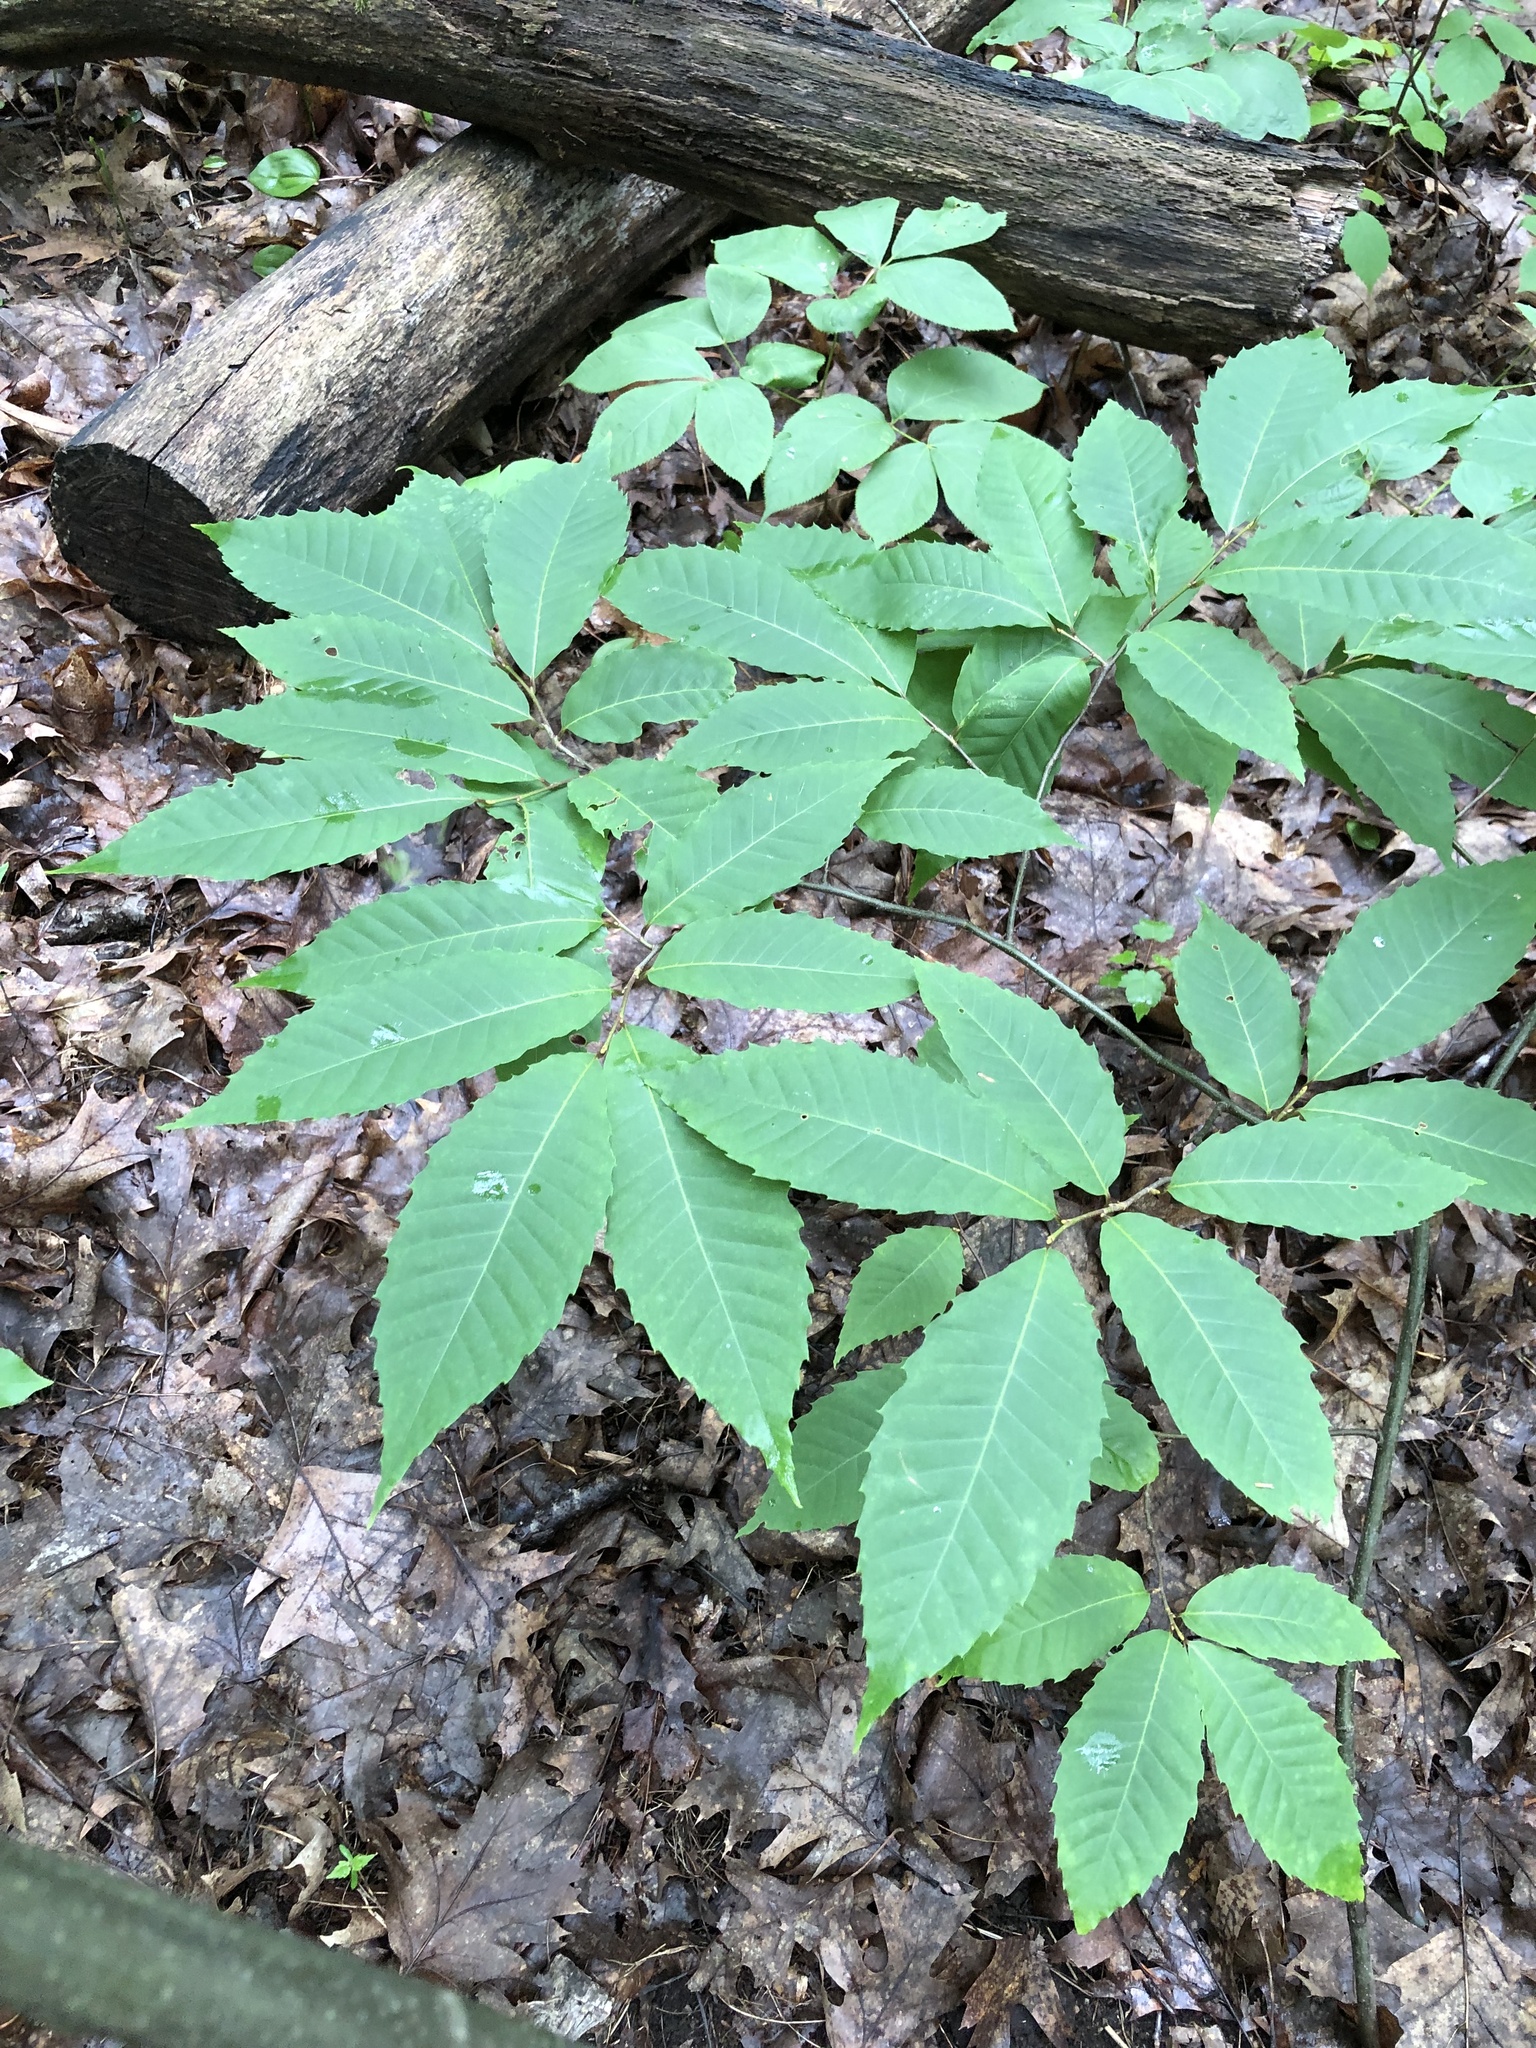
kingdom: Plantae
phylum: Tracheophyta
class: Magnoliopsida
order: Fagales
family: Fagaceae
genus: Castanea
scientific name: Castanea dentata
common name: American chestnut
